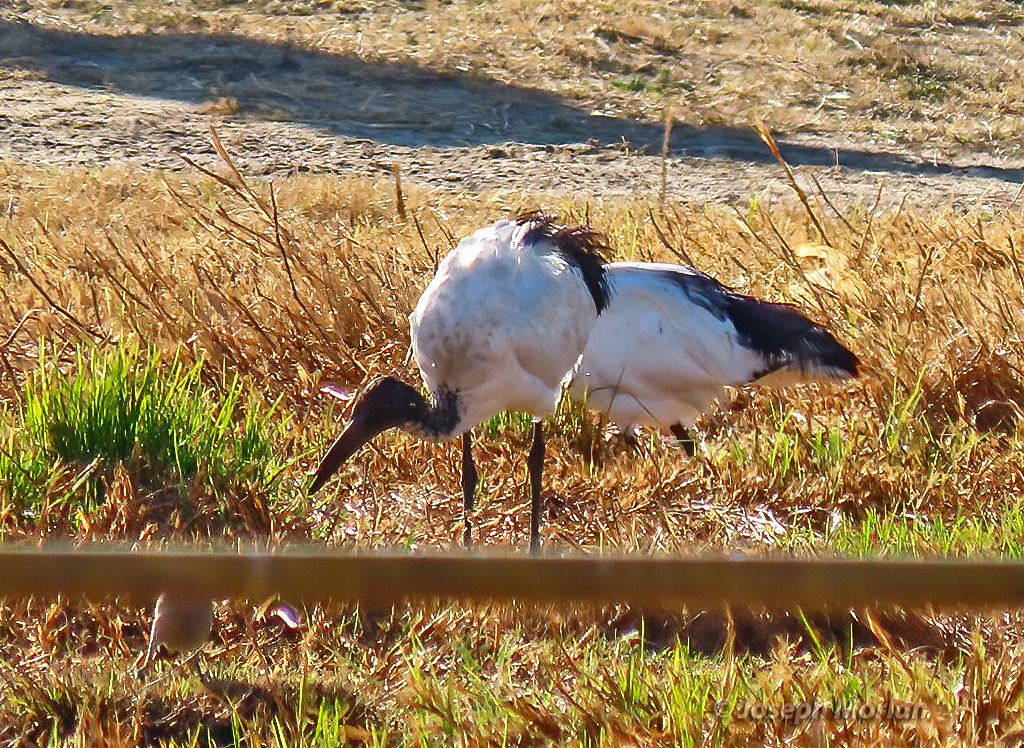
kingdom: Animalia
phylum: Chordata
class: Aves
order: Pelecaniformes
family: Threskiornithidae
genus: Threskiornis
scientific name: Threskiornis aethiopicus
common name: Sacred ibis
